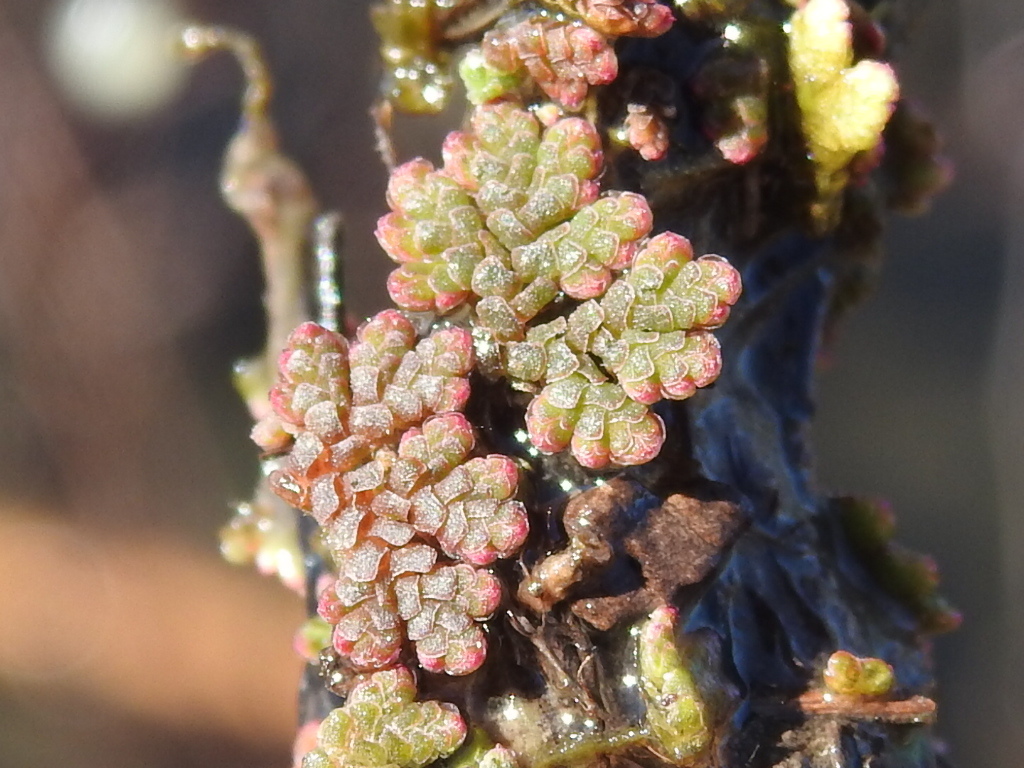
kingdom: Plantae
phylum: Tracheophyta
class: Polypodiopsida
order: Salviniales
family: Salviniaceae
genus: Azolla
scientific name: Azolla caroliniana
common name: Carolina mosquitofern
